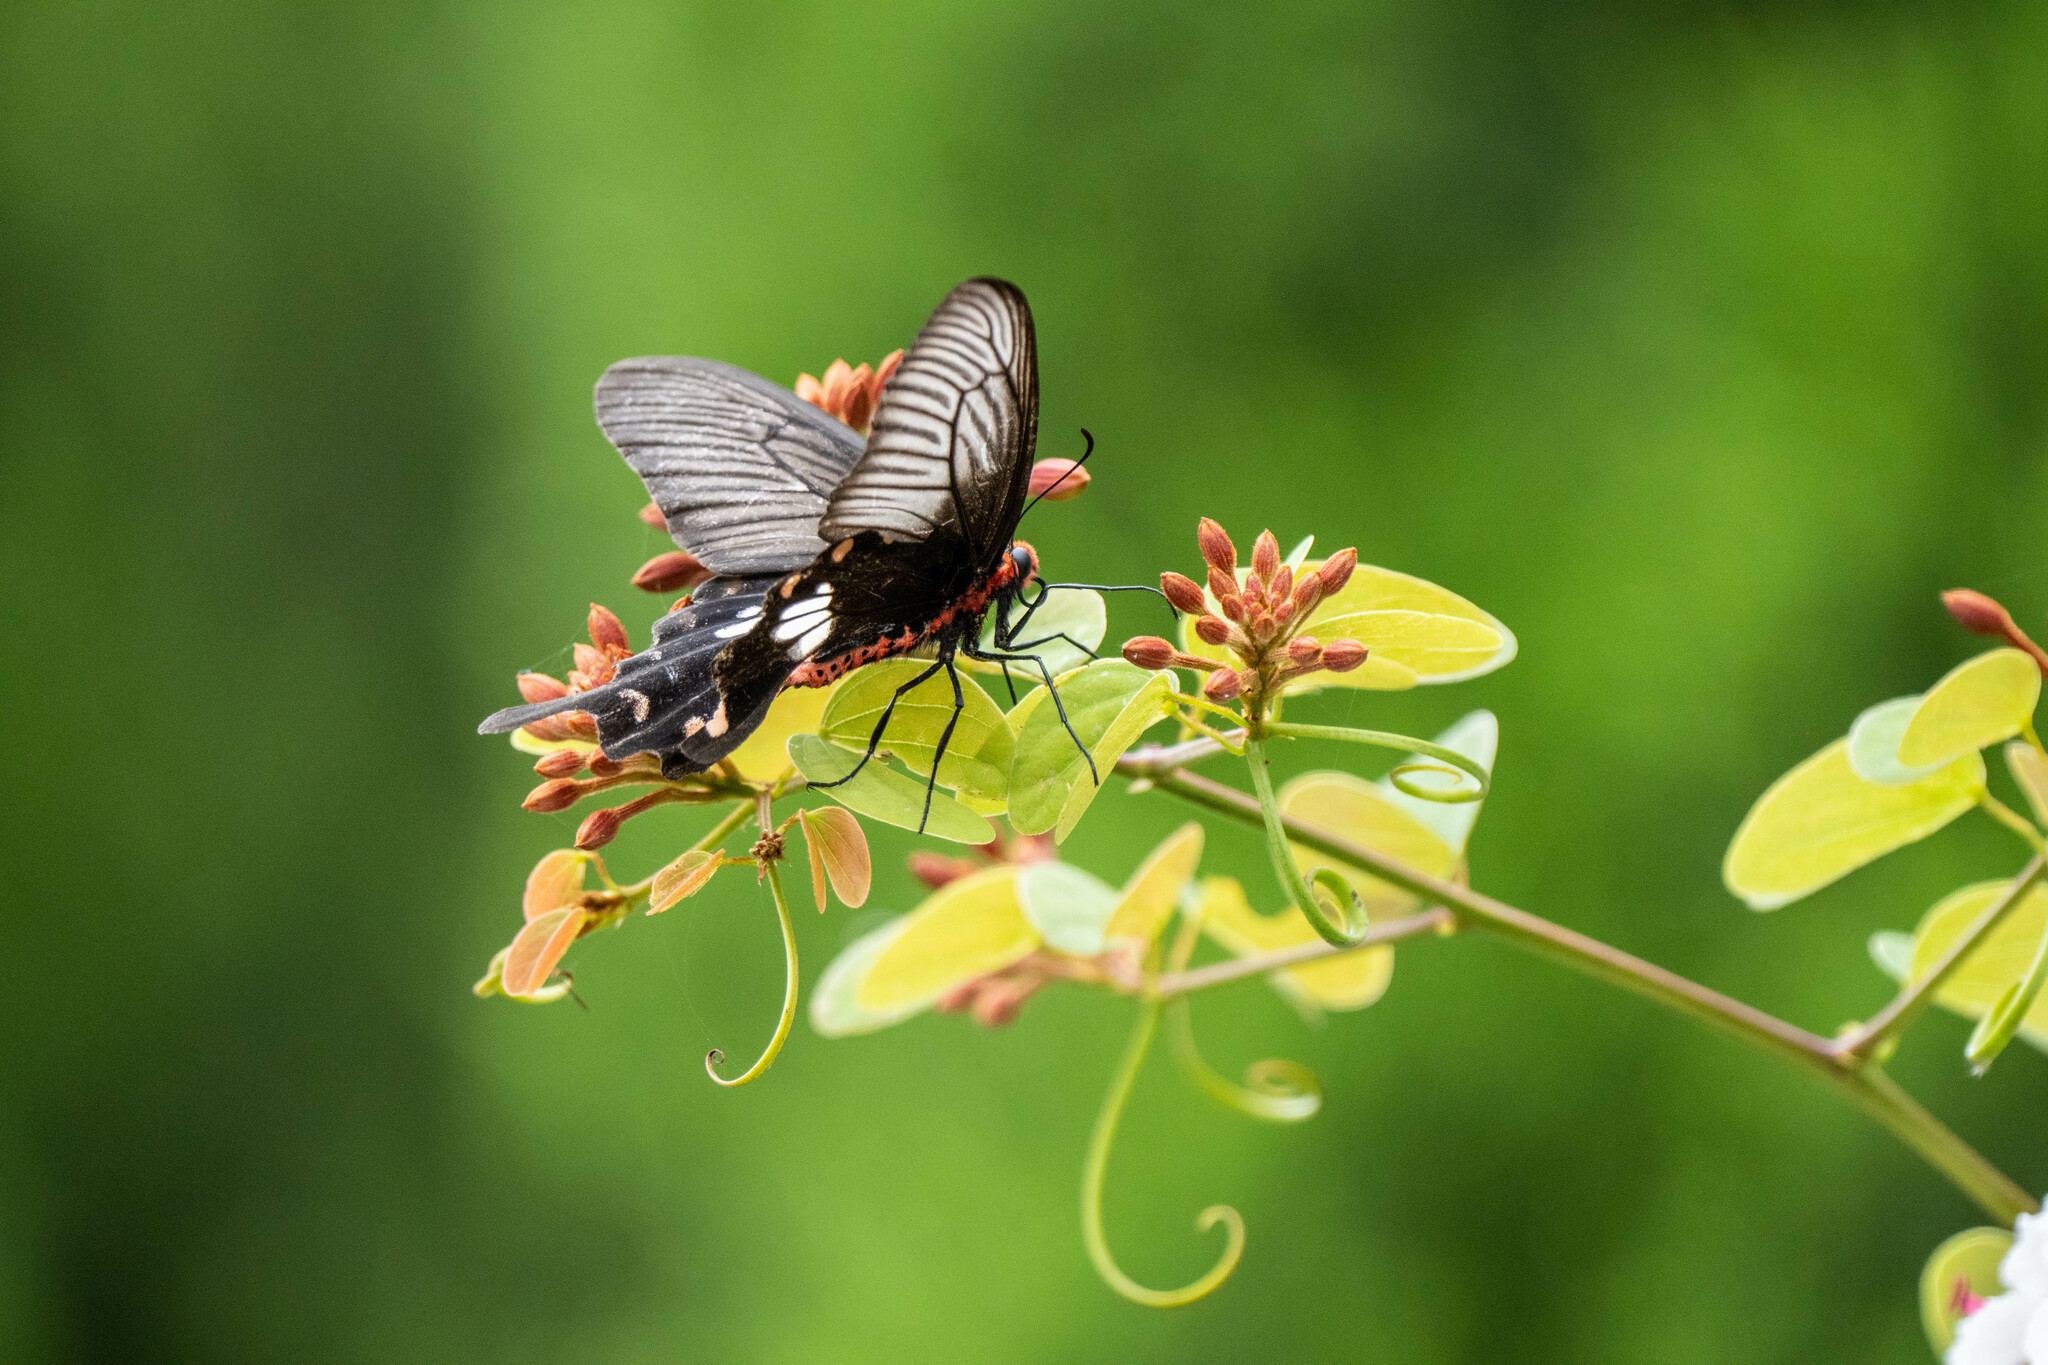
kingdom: Animalia
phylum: Arthropoda
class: Insecta
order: Lepidoptera
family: Papilionidae
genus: Pachliopta
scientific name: Pachliopta aristolochiae
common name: Common rose
